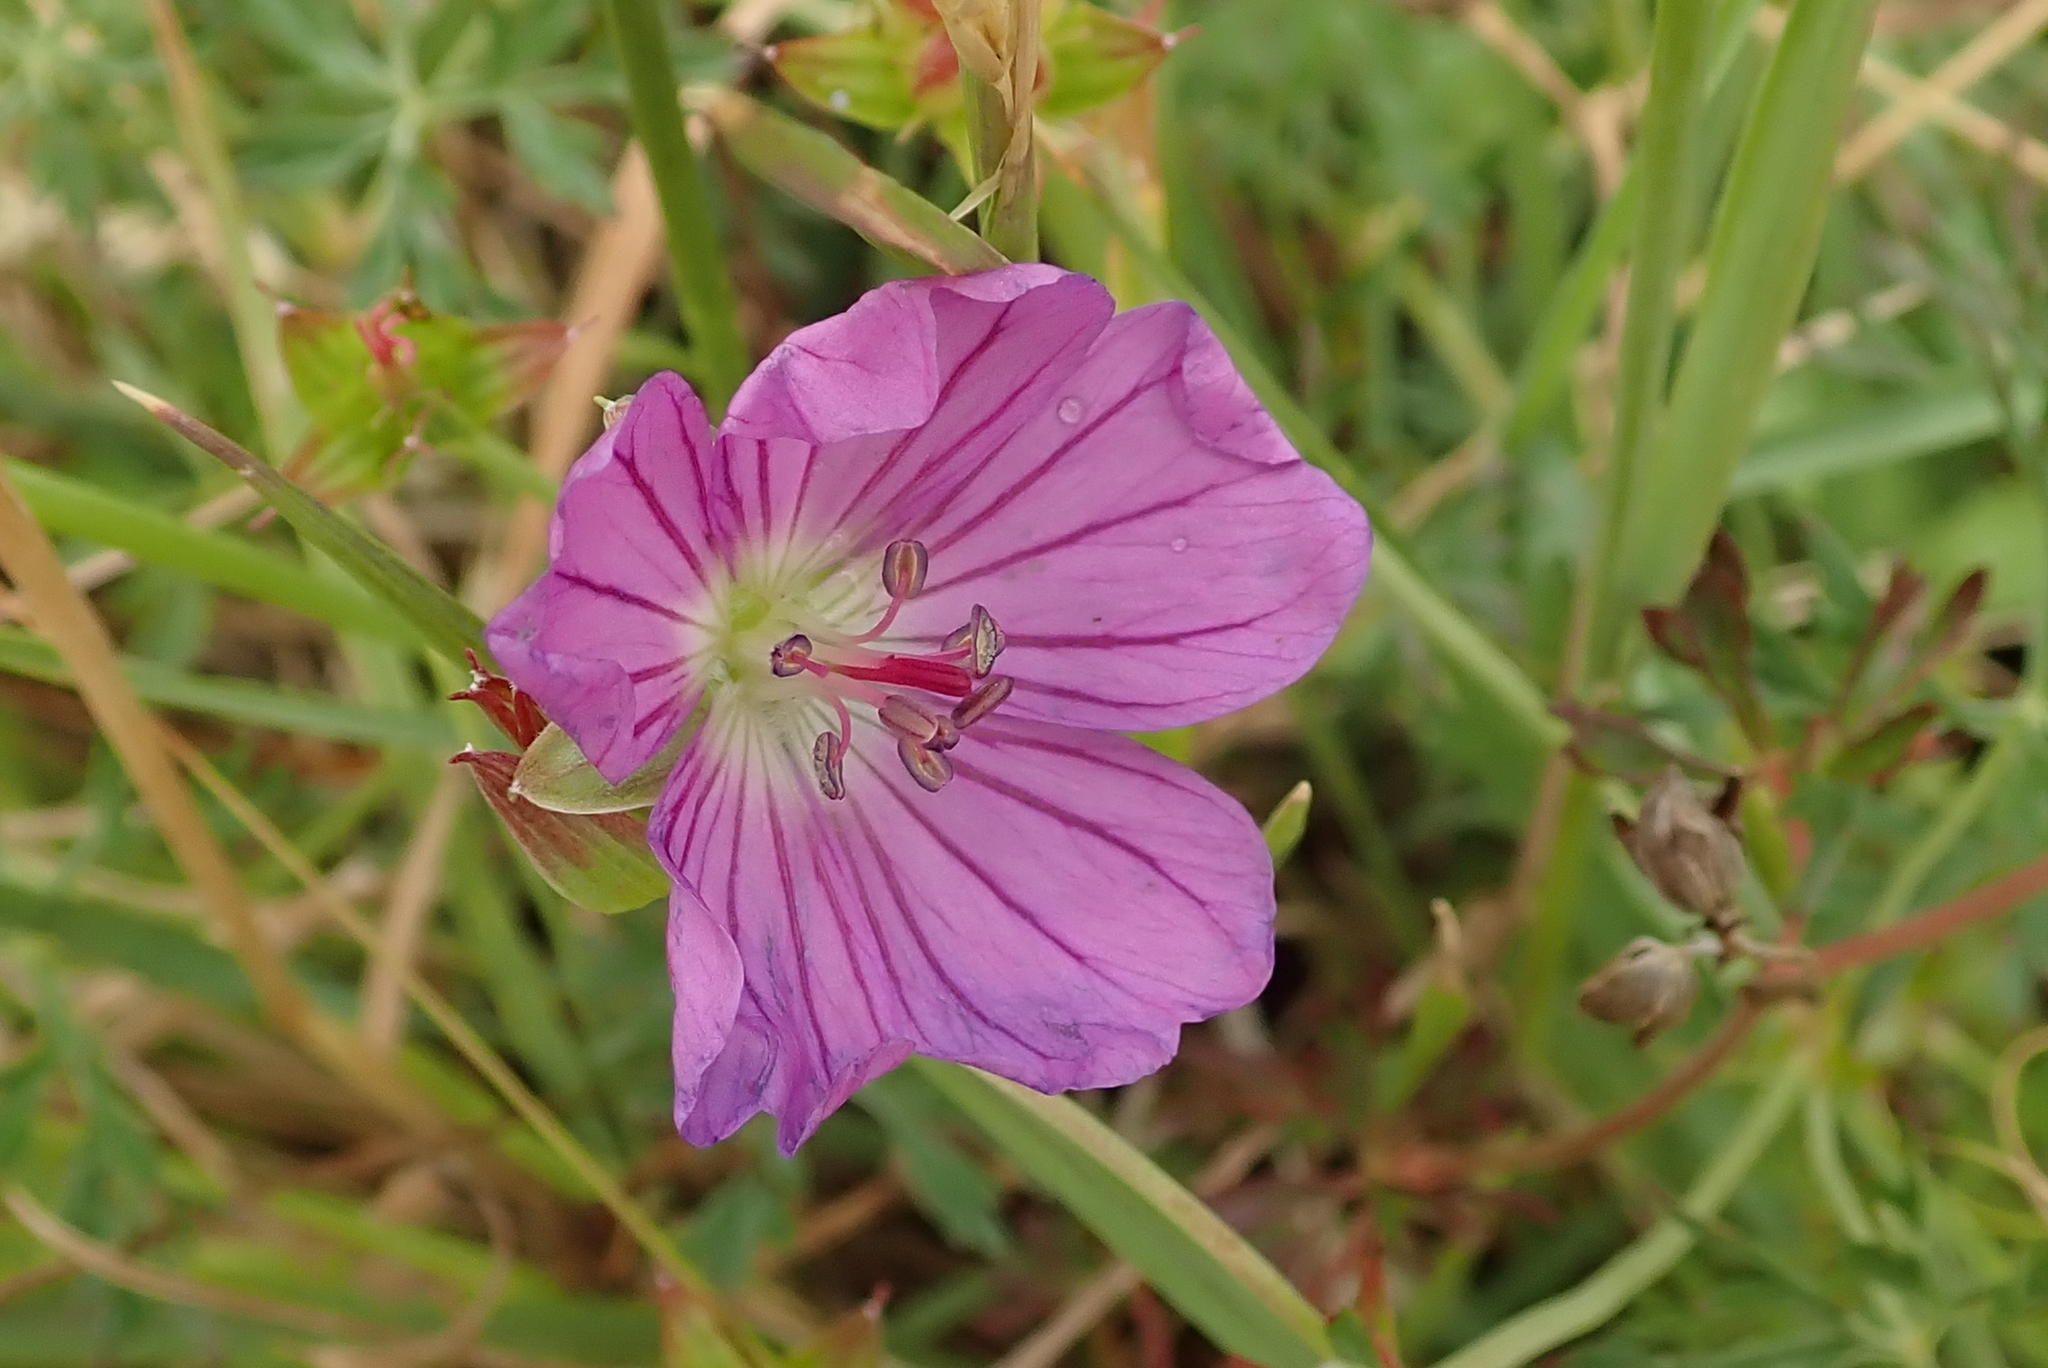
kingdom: Plantae
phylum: Tracheophyta
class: Magnoliopsida
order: Geraniales
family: Geraniaceae
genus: Geranium
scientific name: Geranium multisectum
